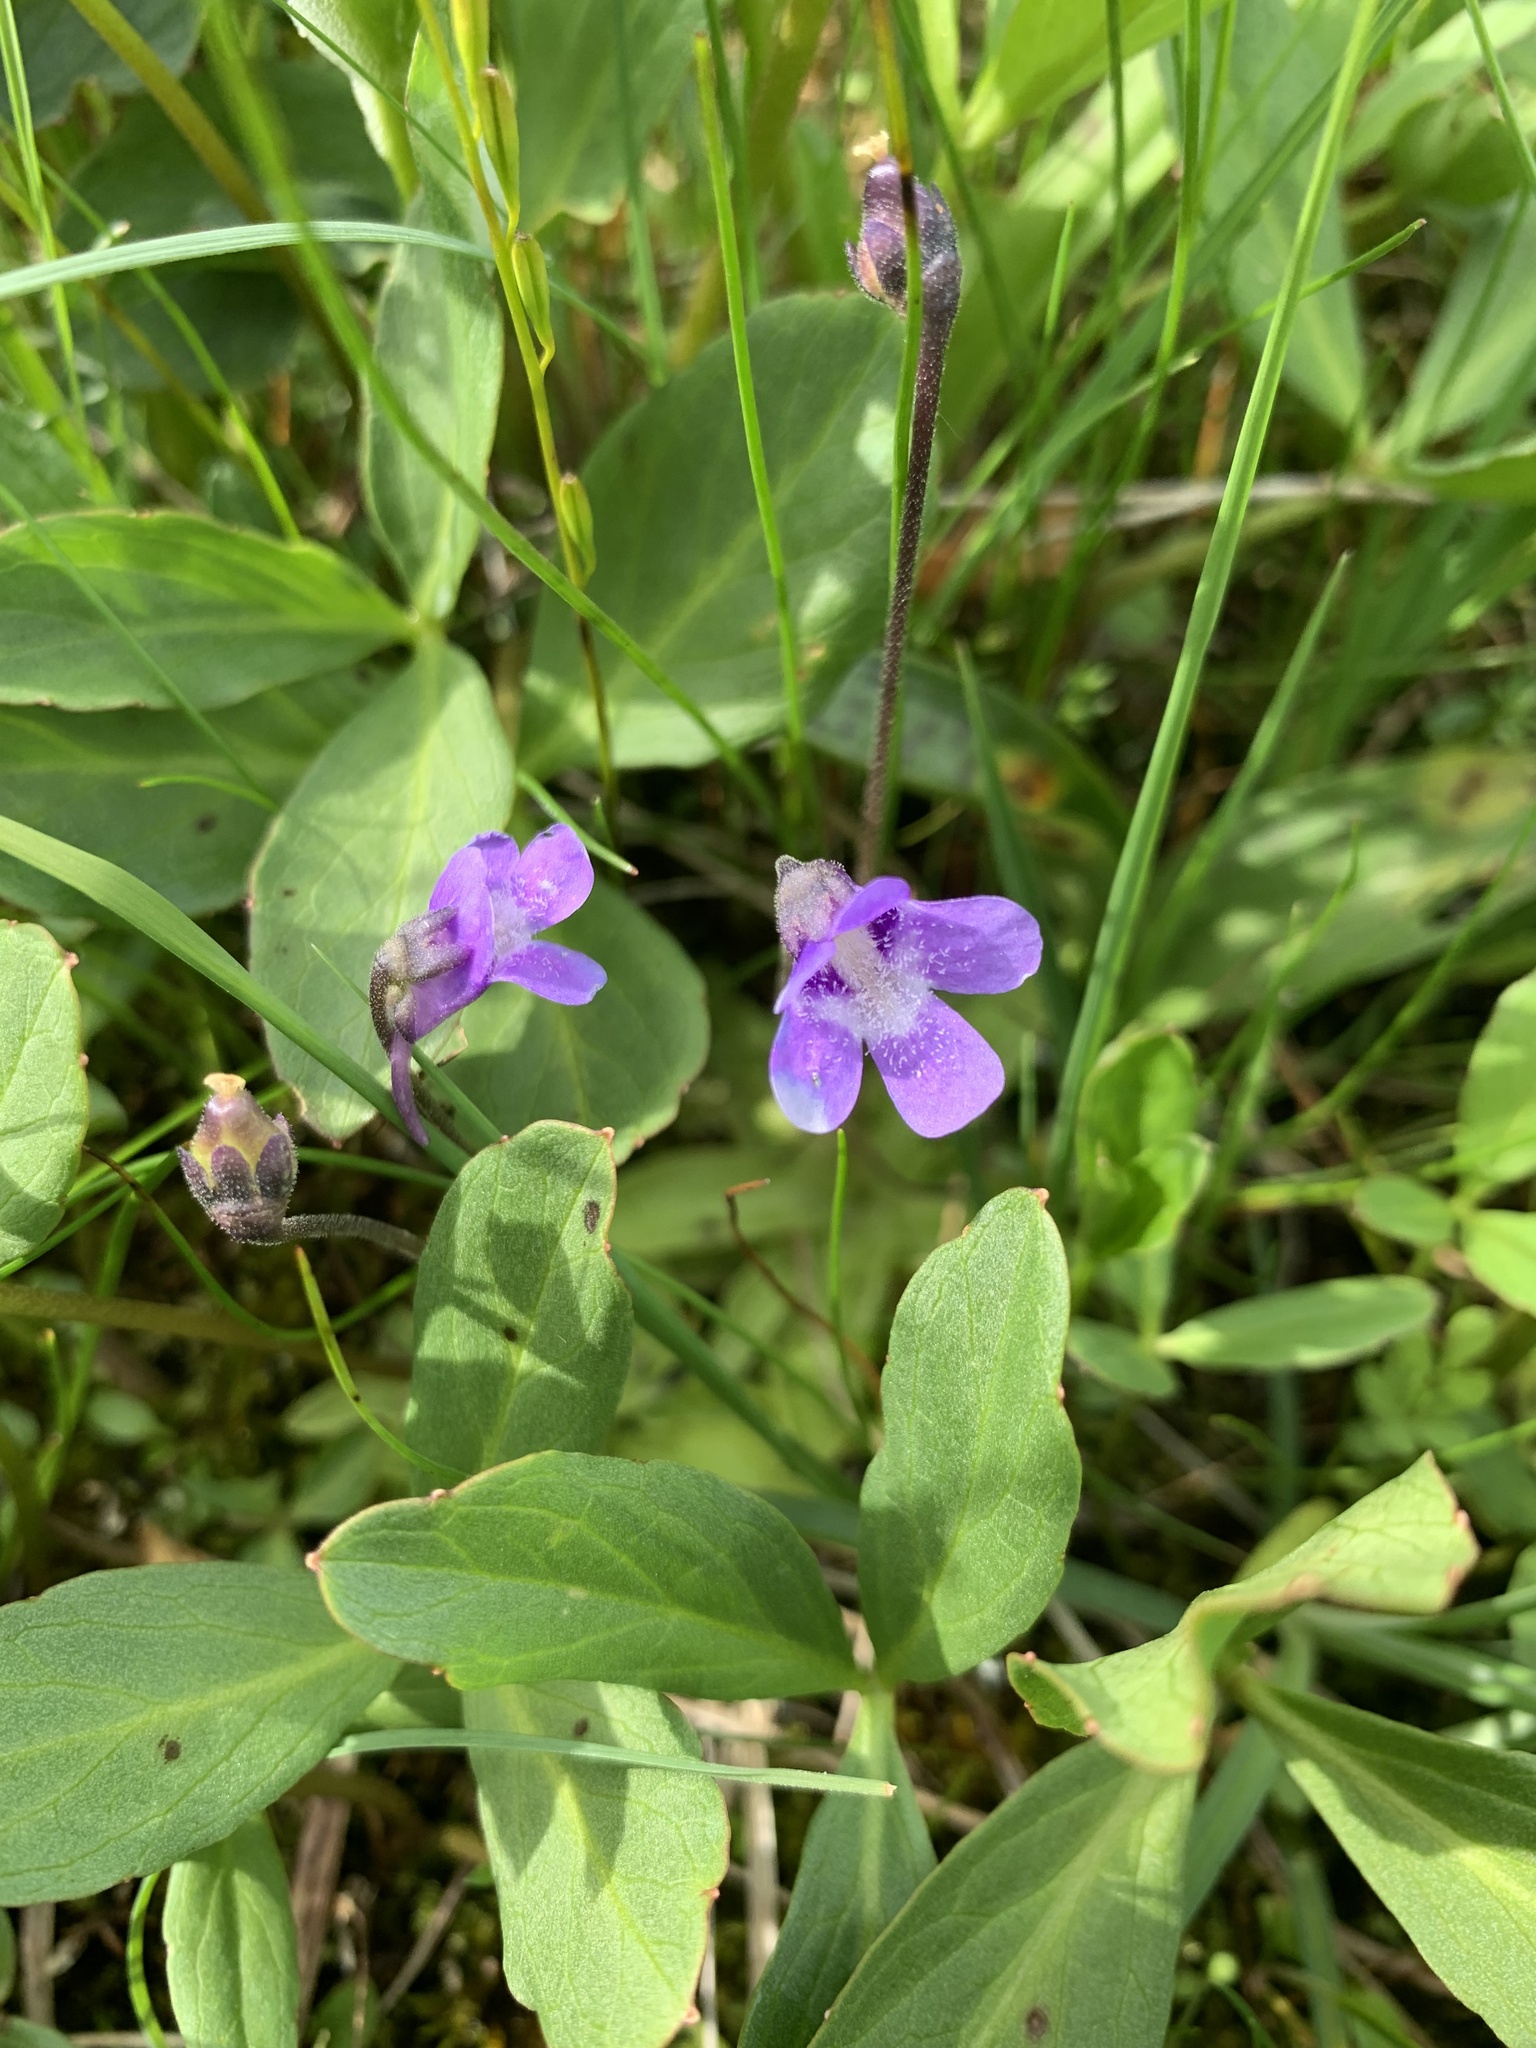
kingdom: Plantae
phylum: Tracheophyta
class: Magnoliopsida
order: Lamiales
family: Lentibulariaceae
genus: Pinguicula
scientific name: Pinguicula vulgaris
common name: Common butterwort
